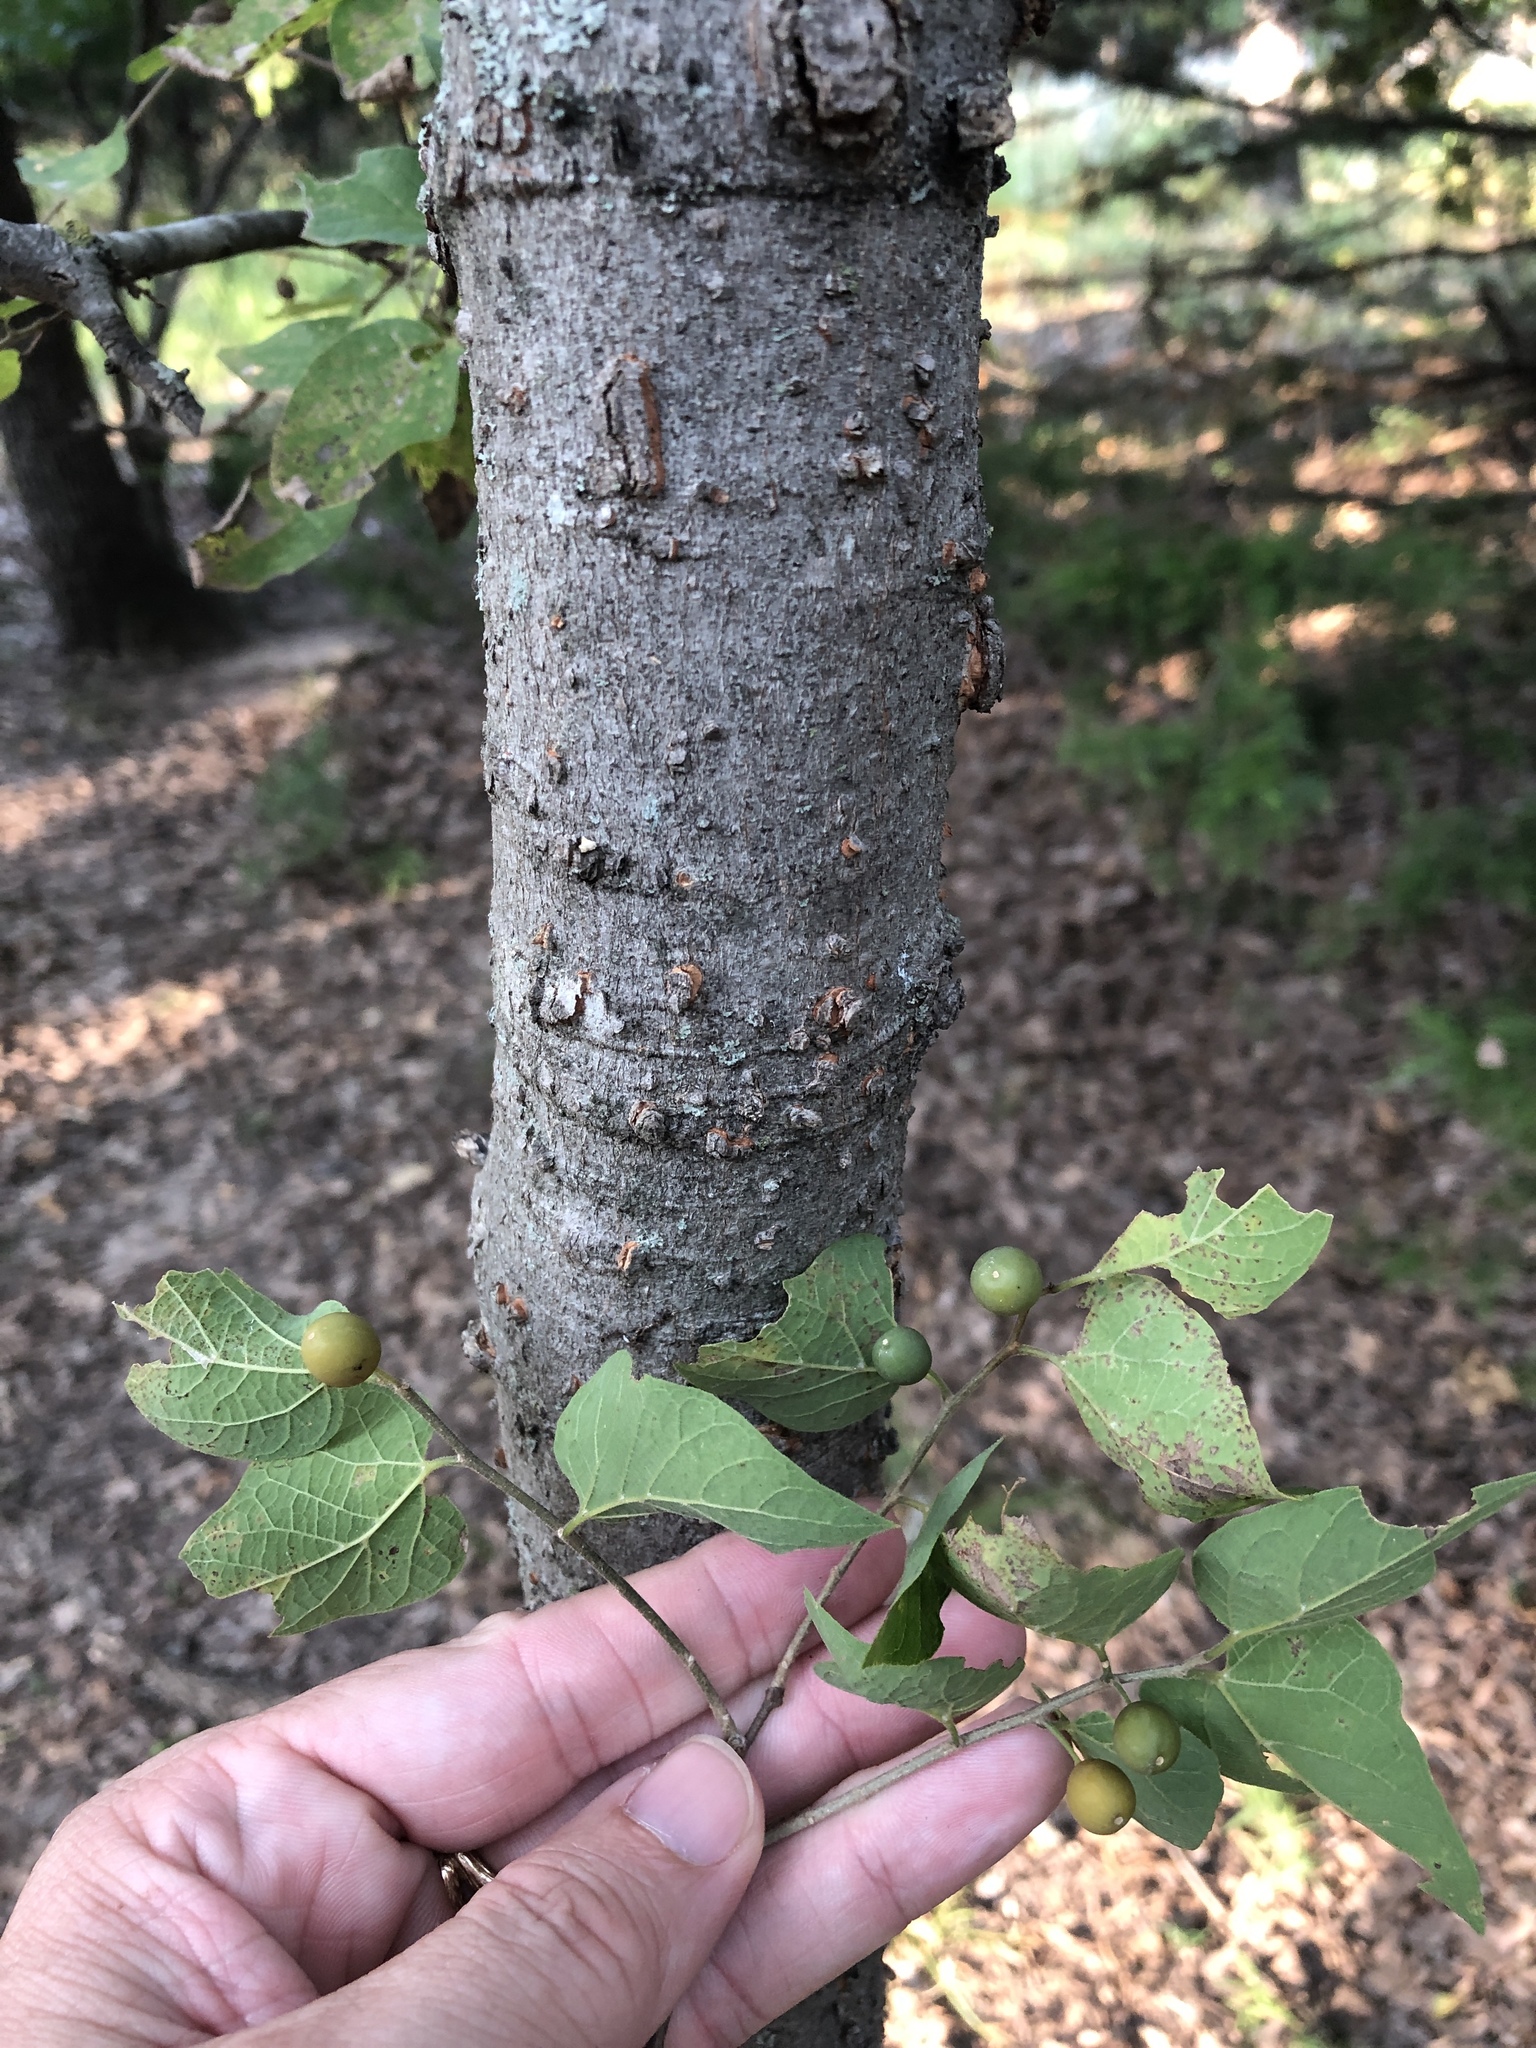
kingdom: Plantae
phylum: Tracheophyta
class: Magnoliopsida
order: Rosales
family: Cannabaceae
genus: Celtis
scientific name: Celtis reticulata
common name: Netleaf hackberry
